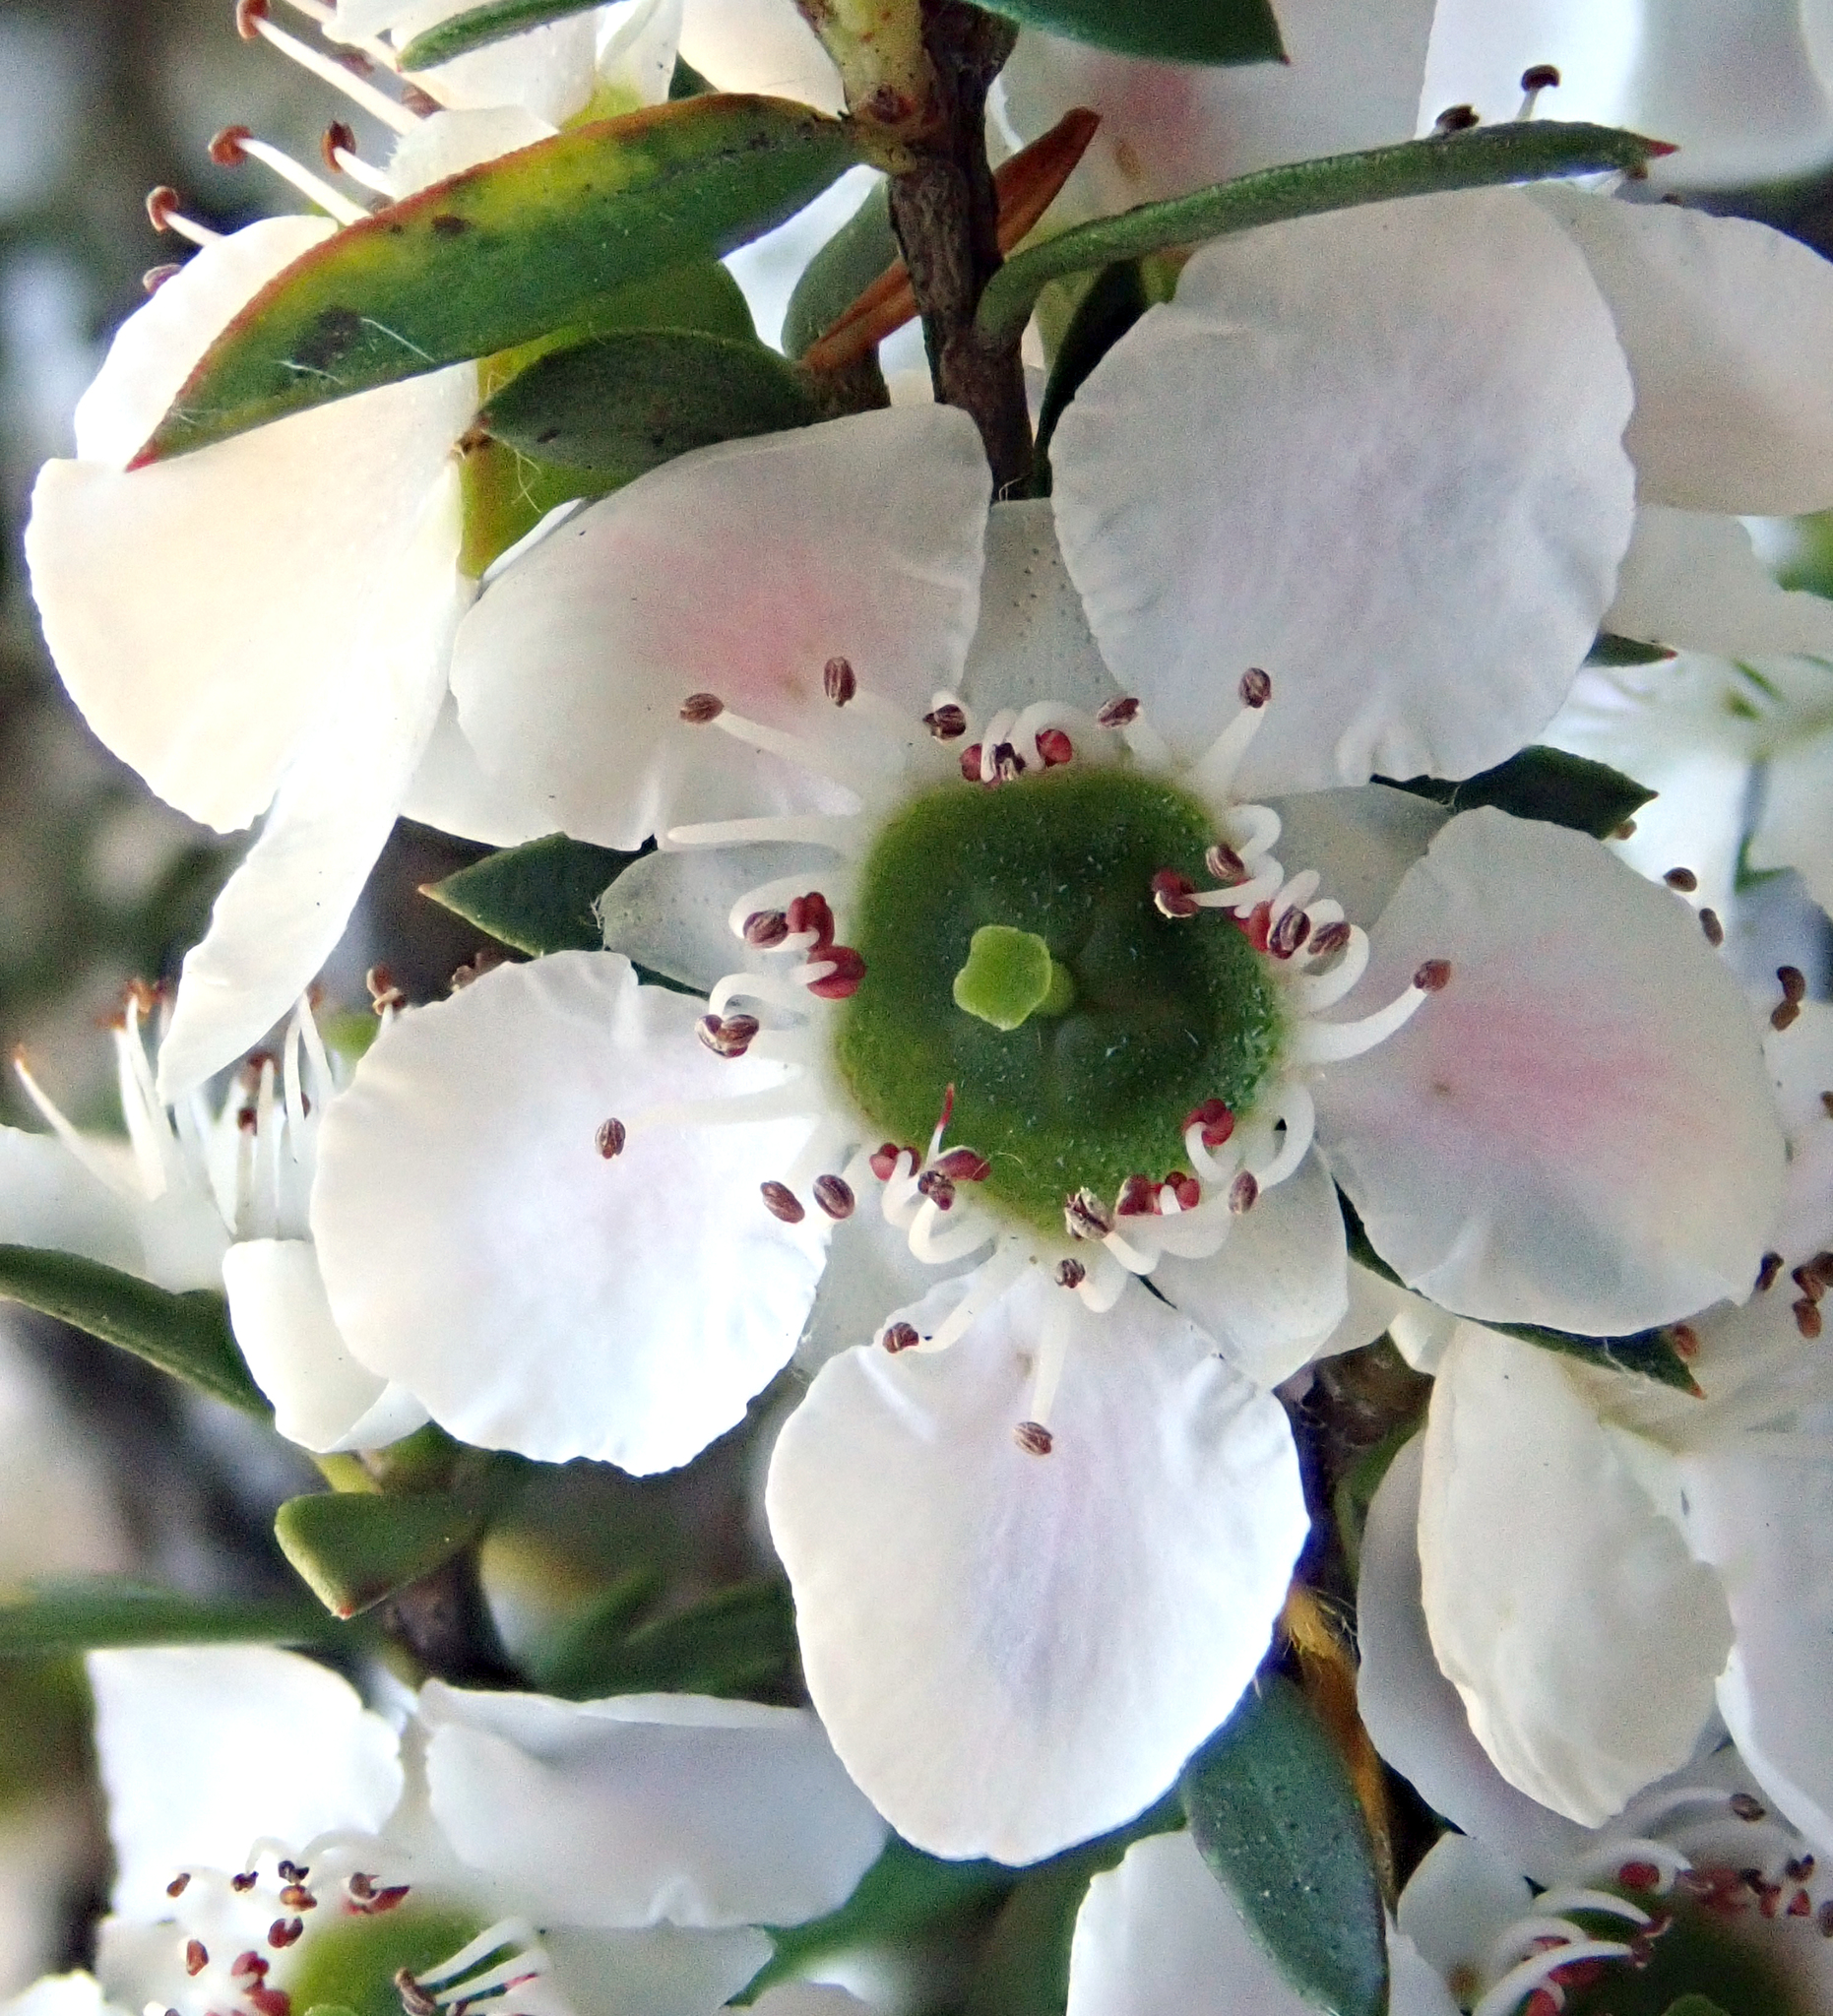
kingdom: Plantae
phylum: Tracheophyta
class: Magnoliopsida
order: Myrtales
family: Myrtaceae
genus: Leptospermum
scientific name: Leptospermum scoparium
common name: Broom tea-tree
